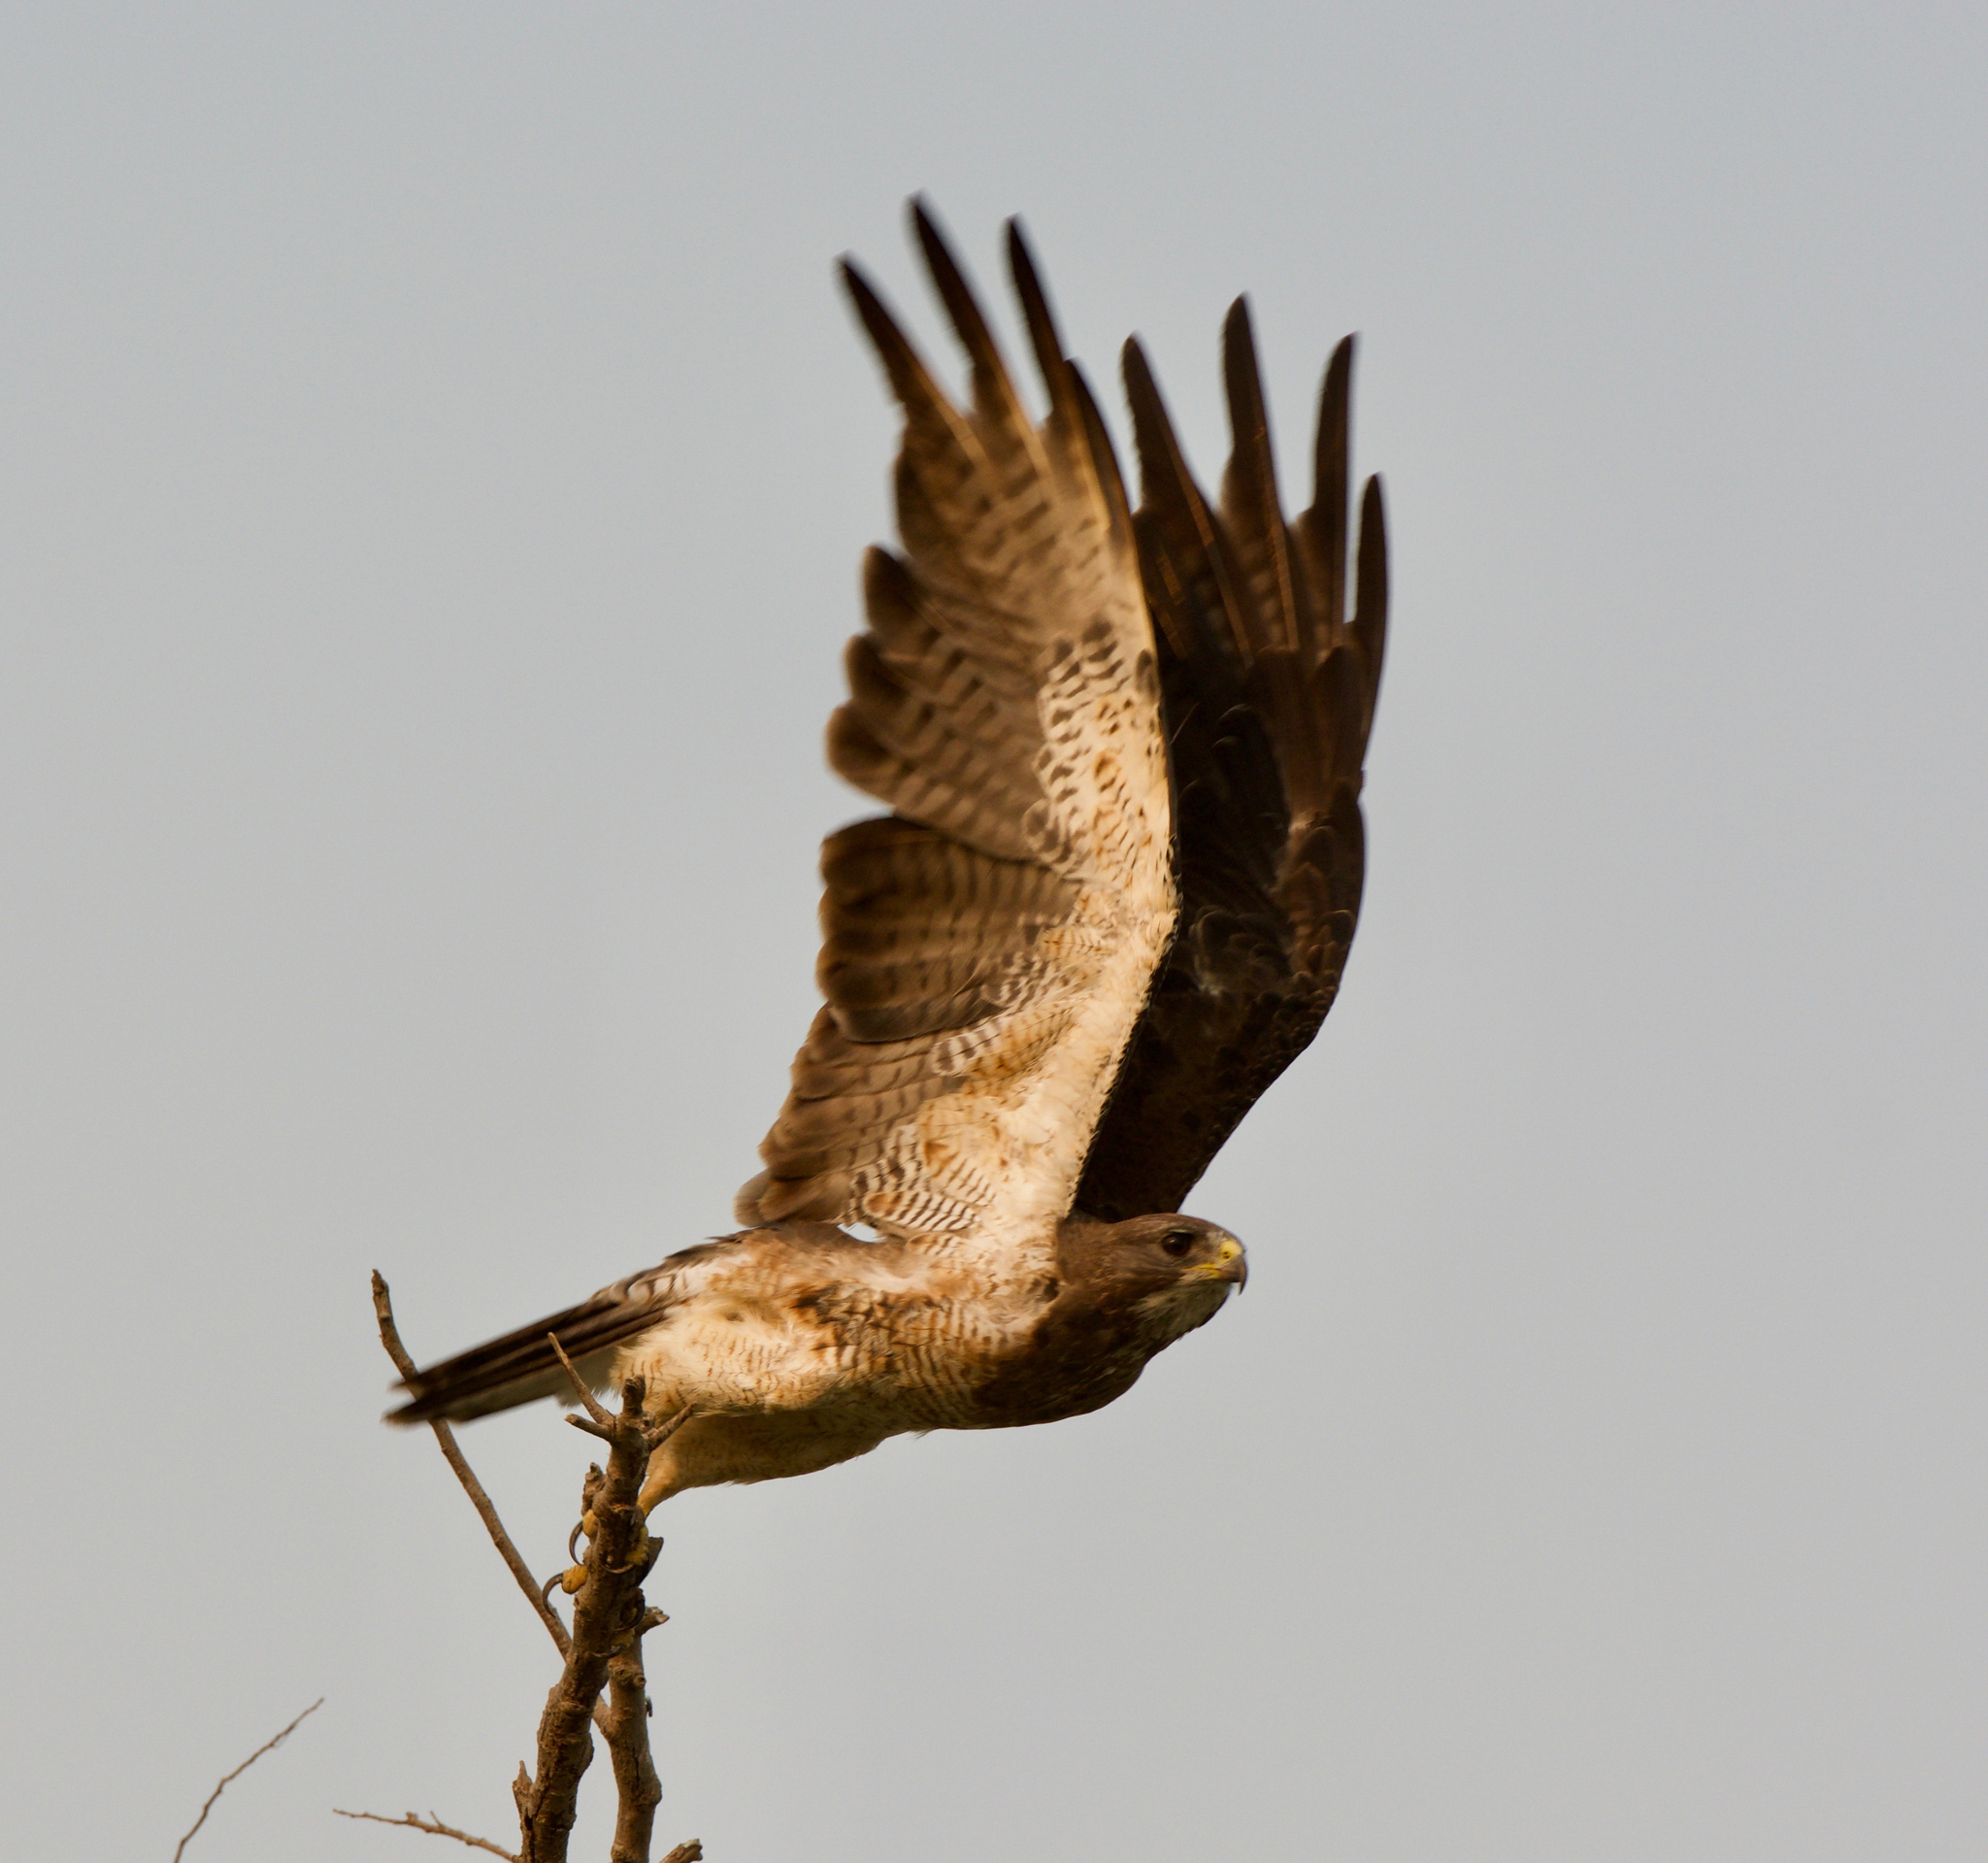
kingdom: Animalia
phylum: Chordata
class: Aves
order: Accipitriformes
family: Accipitridae
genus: Buteo
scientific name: Buteo swainsoni
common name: Swainson's hawk
